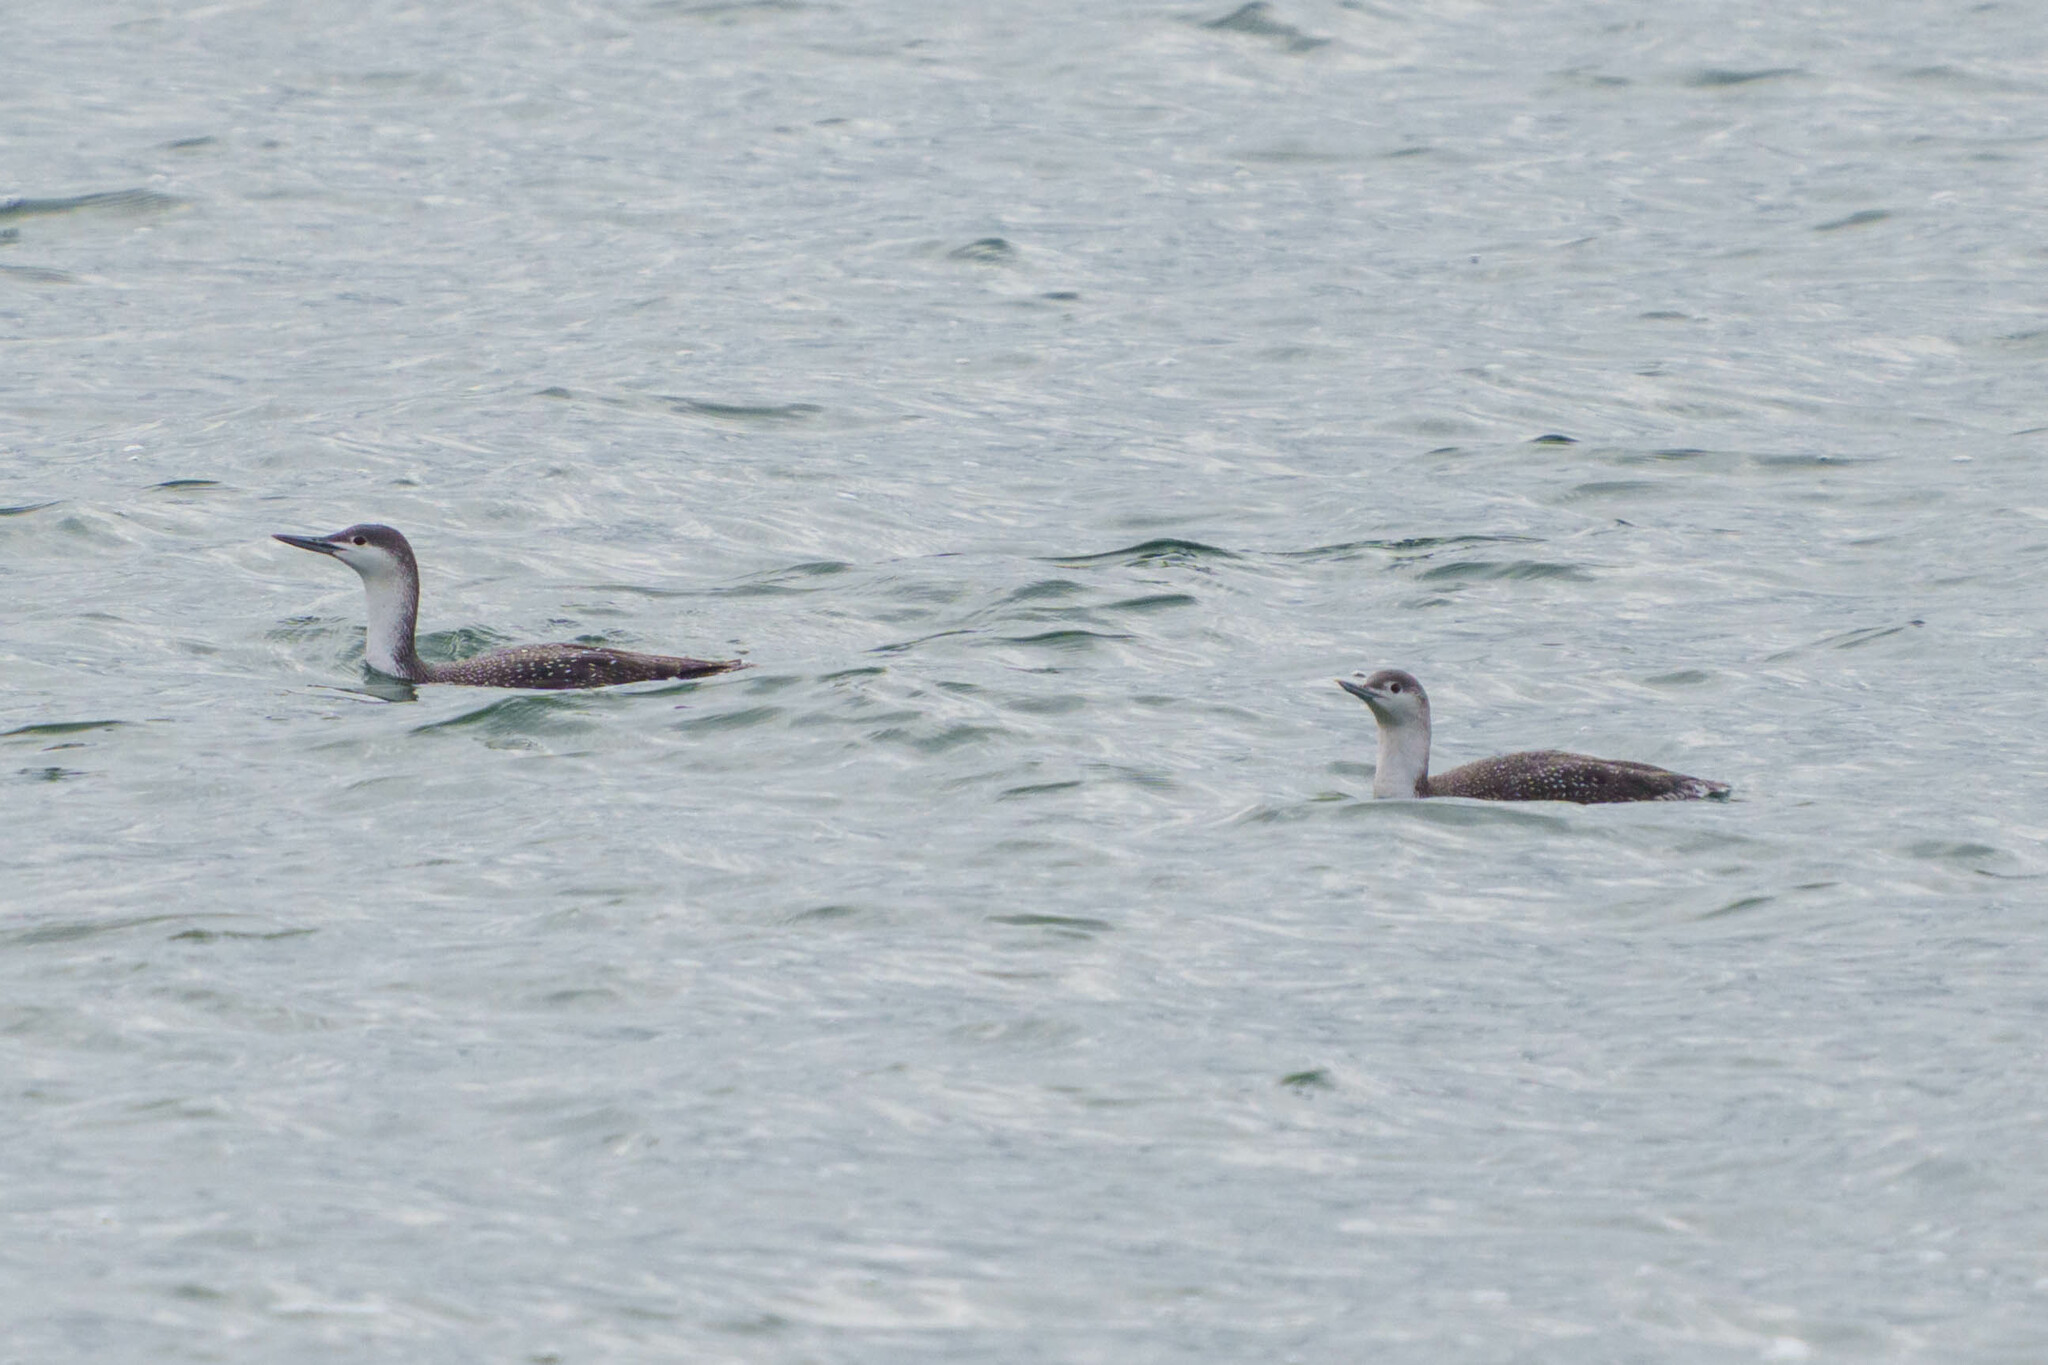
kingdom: Animalia
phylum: Chordata
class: Aves
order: Gaviiformes
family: Gaviidae
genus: Gavia
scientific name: Gavia stellata
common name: Red-throated loon
